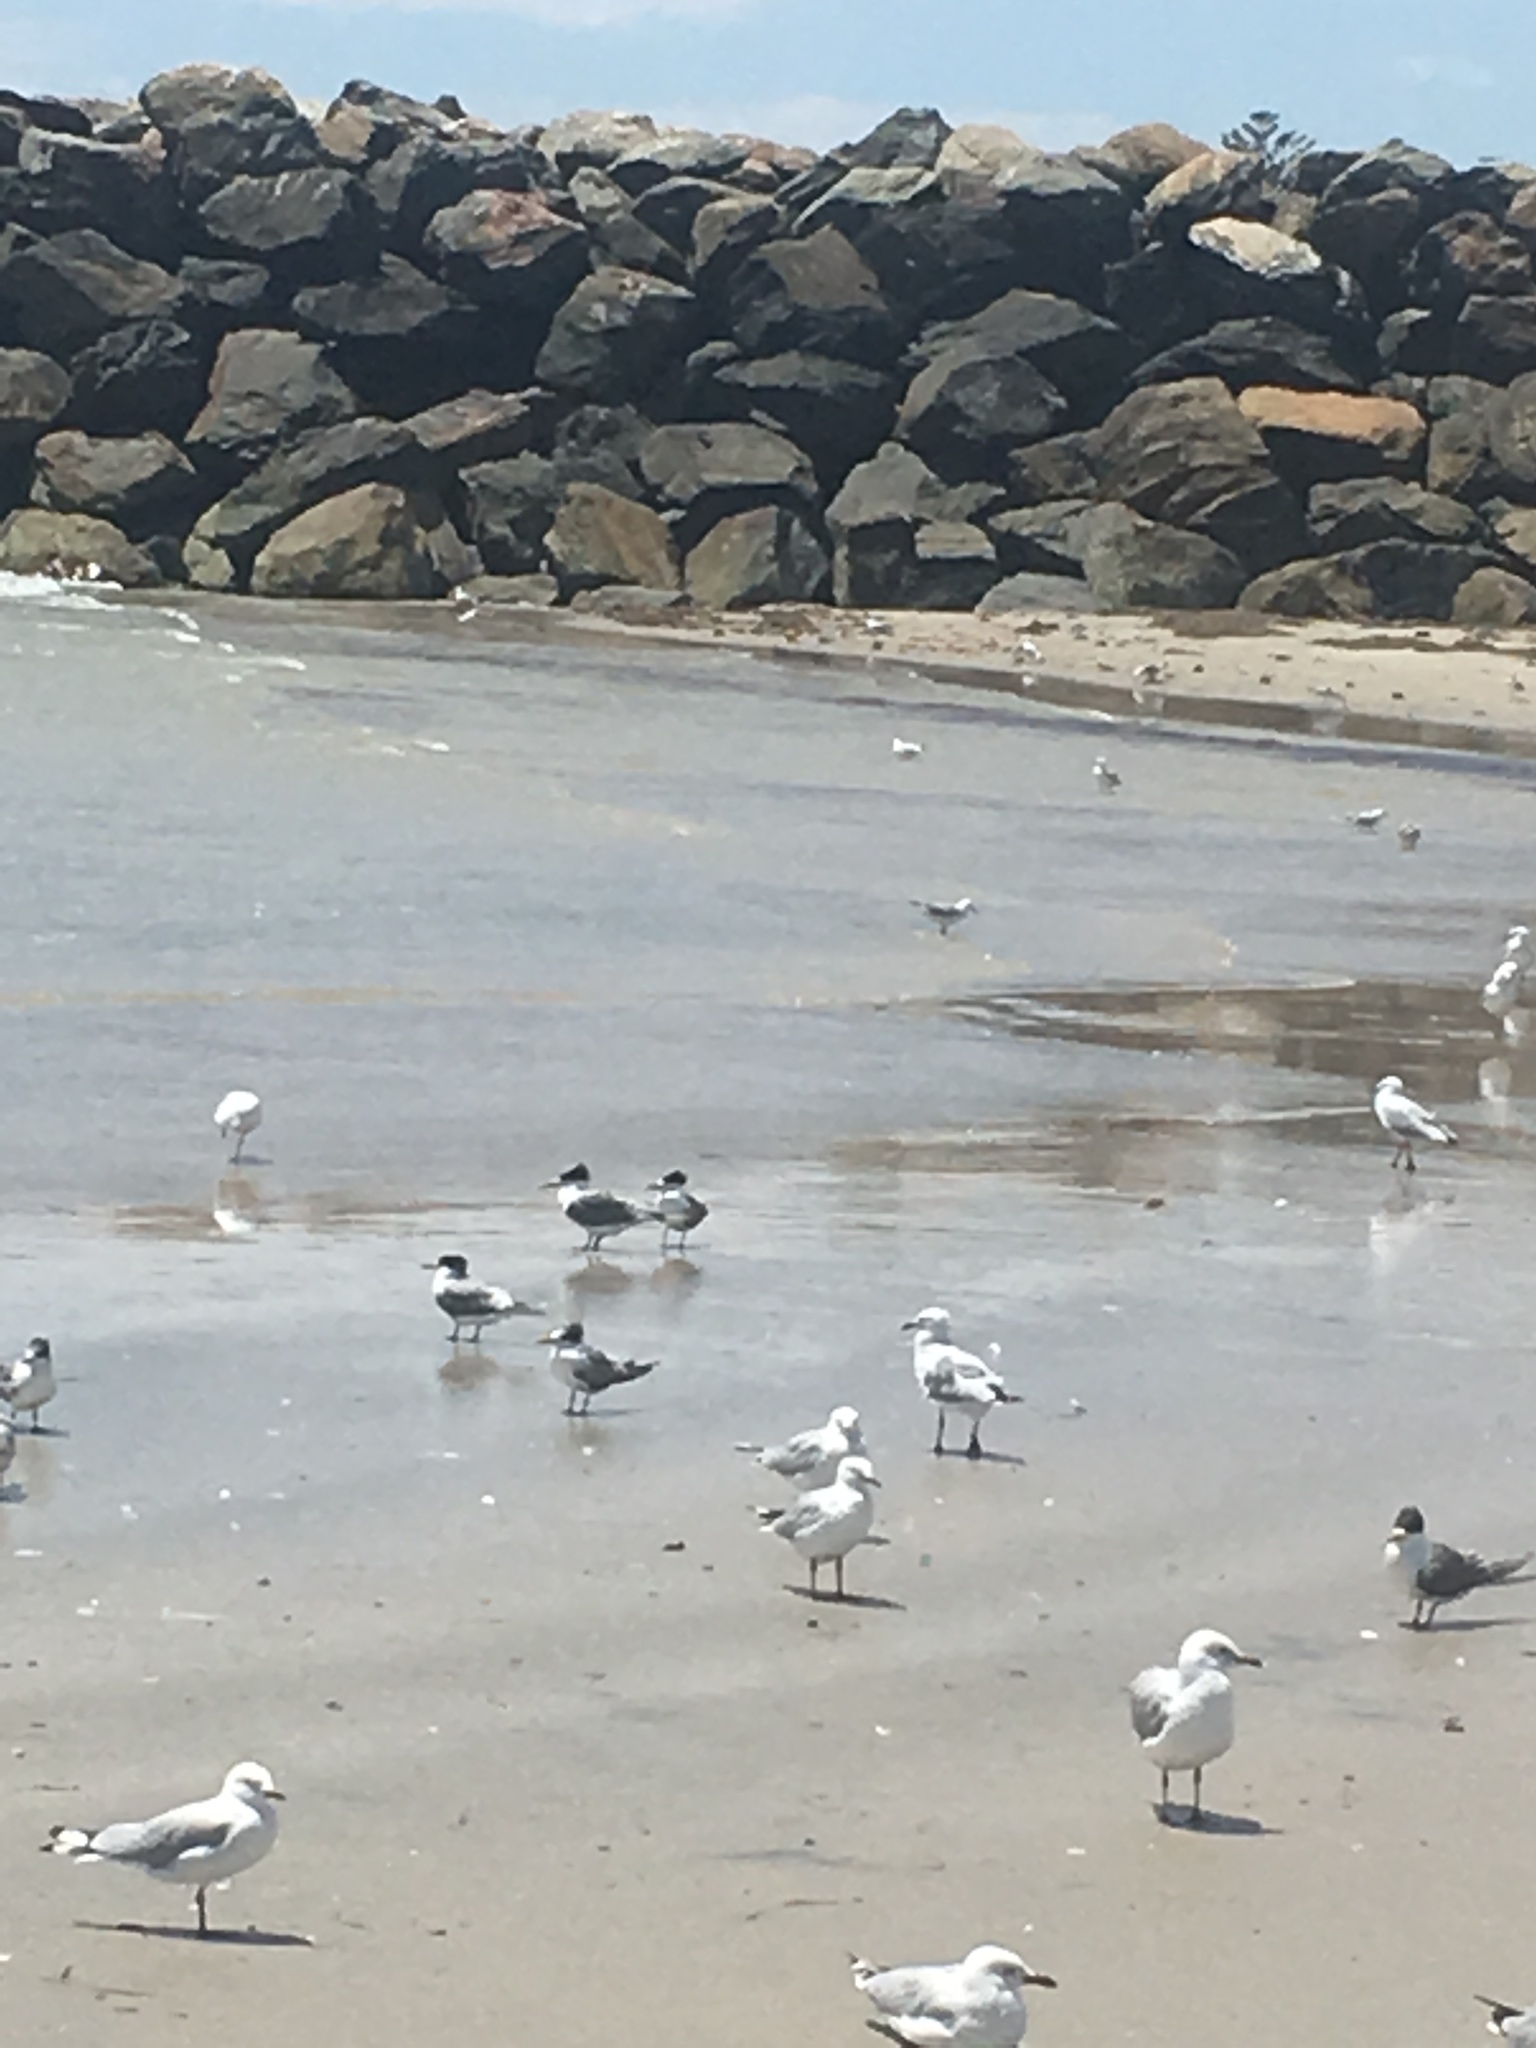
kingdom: Animalia
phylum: Chordata
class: Aves
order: Charadriiformes
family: Laridae
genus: Chroicocephalus
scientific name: Chroicocephalus novaehollandiae
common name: Silver gull
